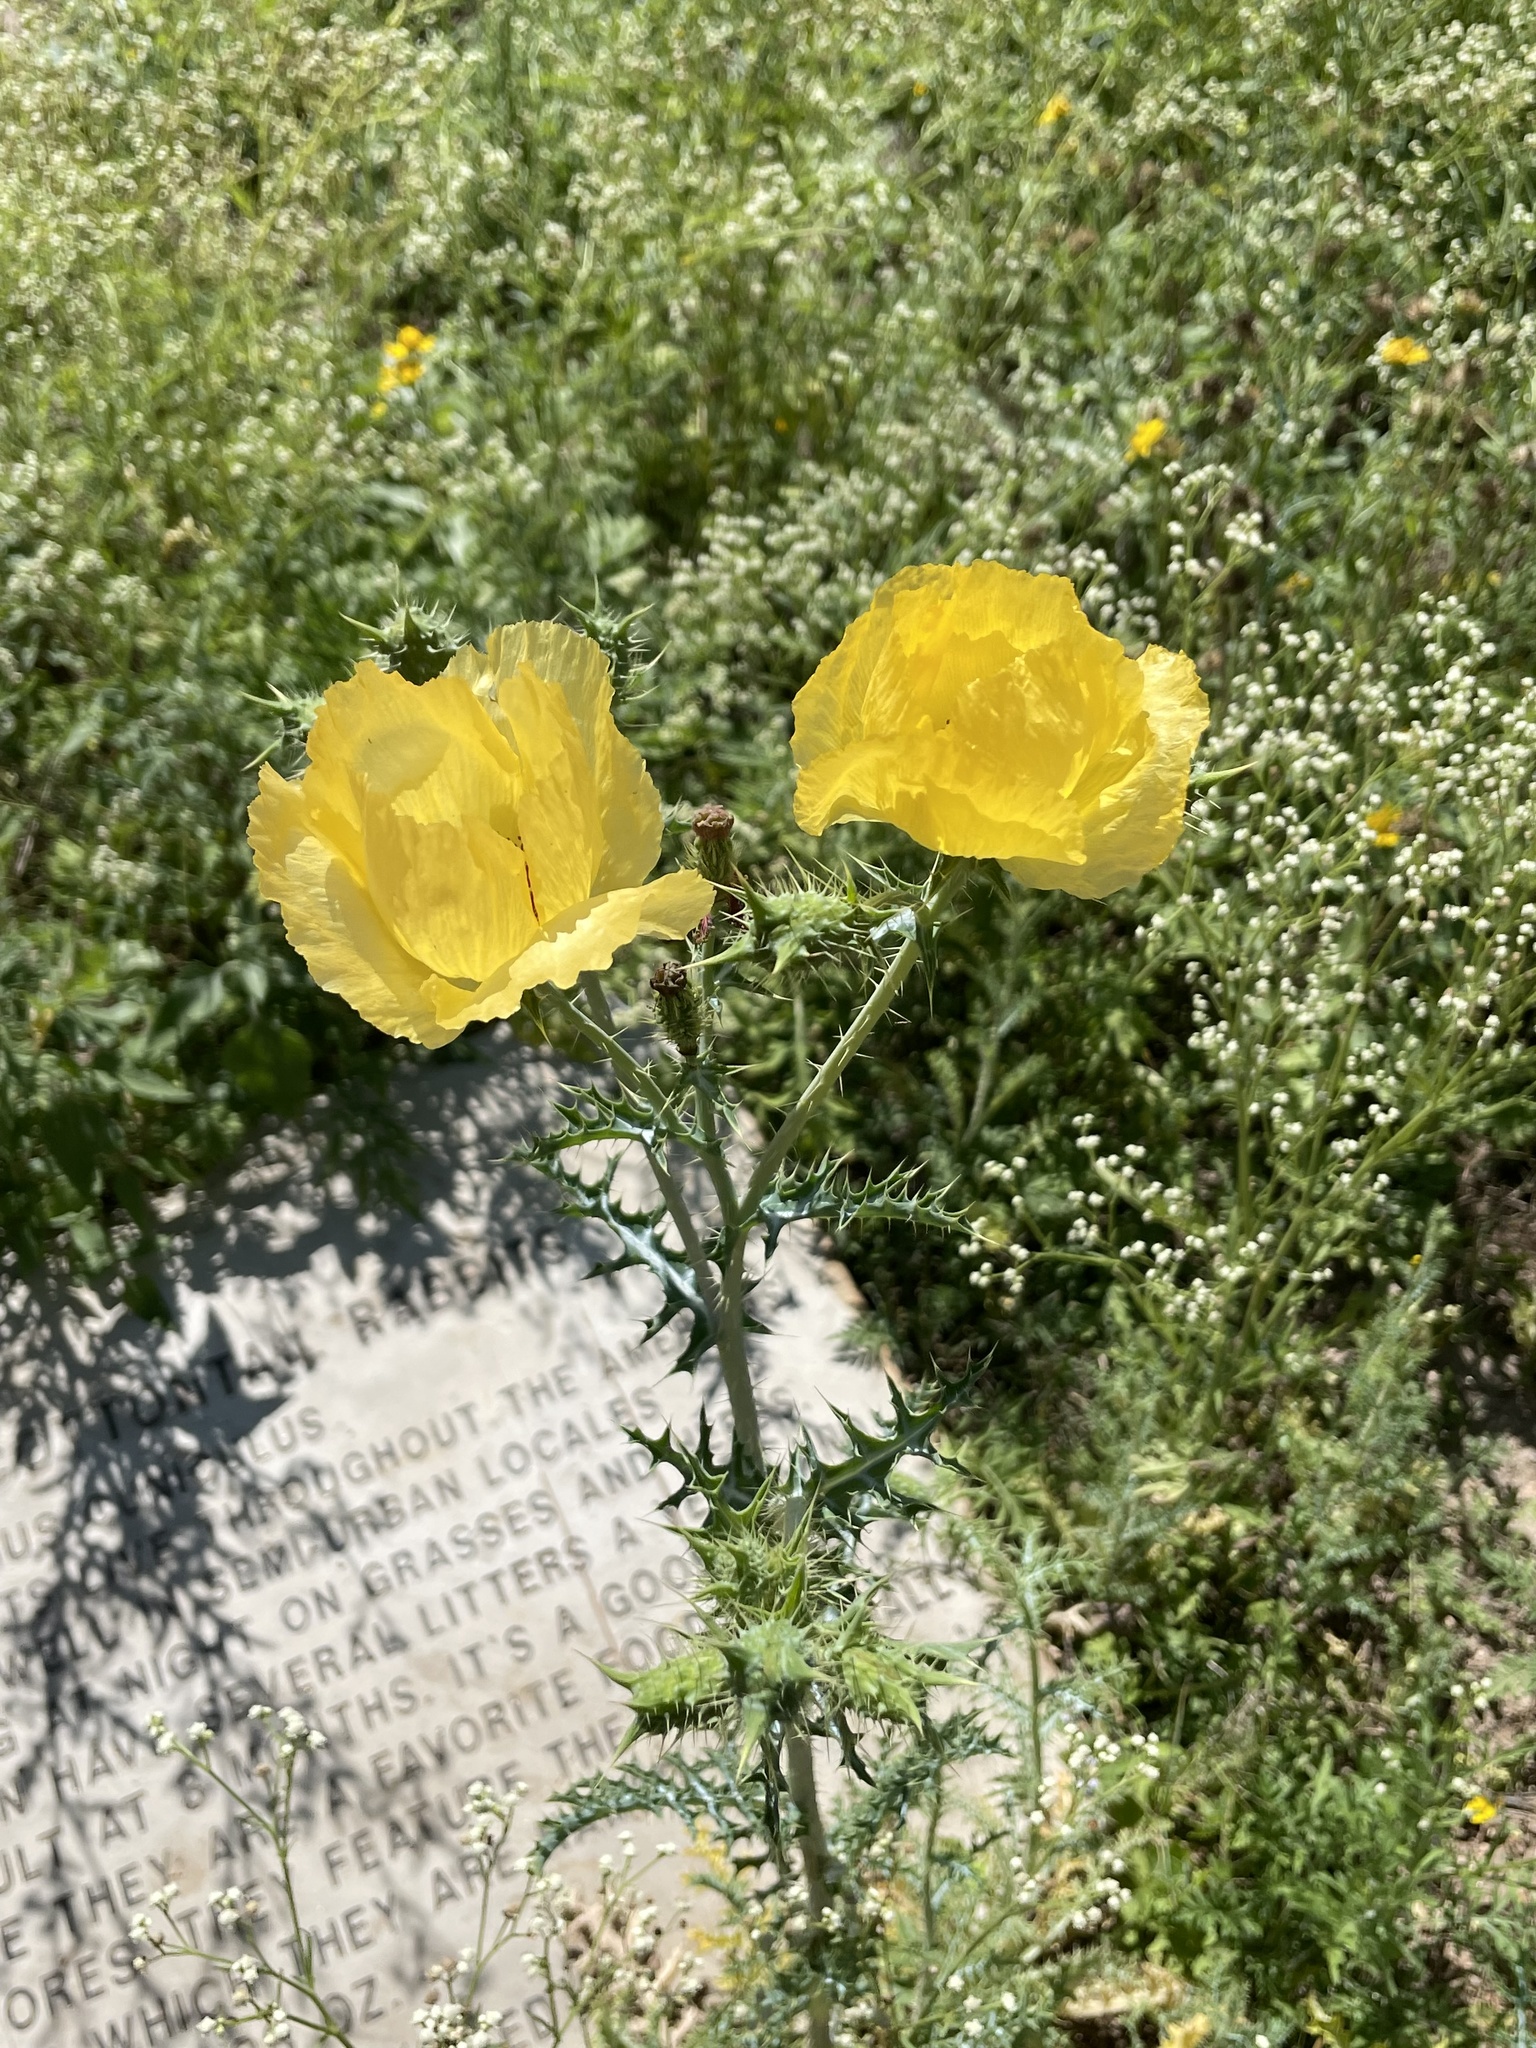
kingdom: Plantae
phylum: Tracheophyta
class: Magnoliopsida
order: Ranunculales
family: Papaveraceae
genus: Argemone
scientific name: Argemone aenea
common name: Golden prickly-poppy
